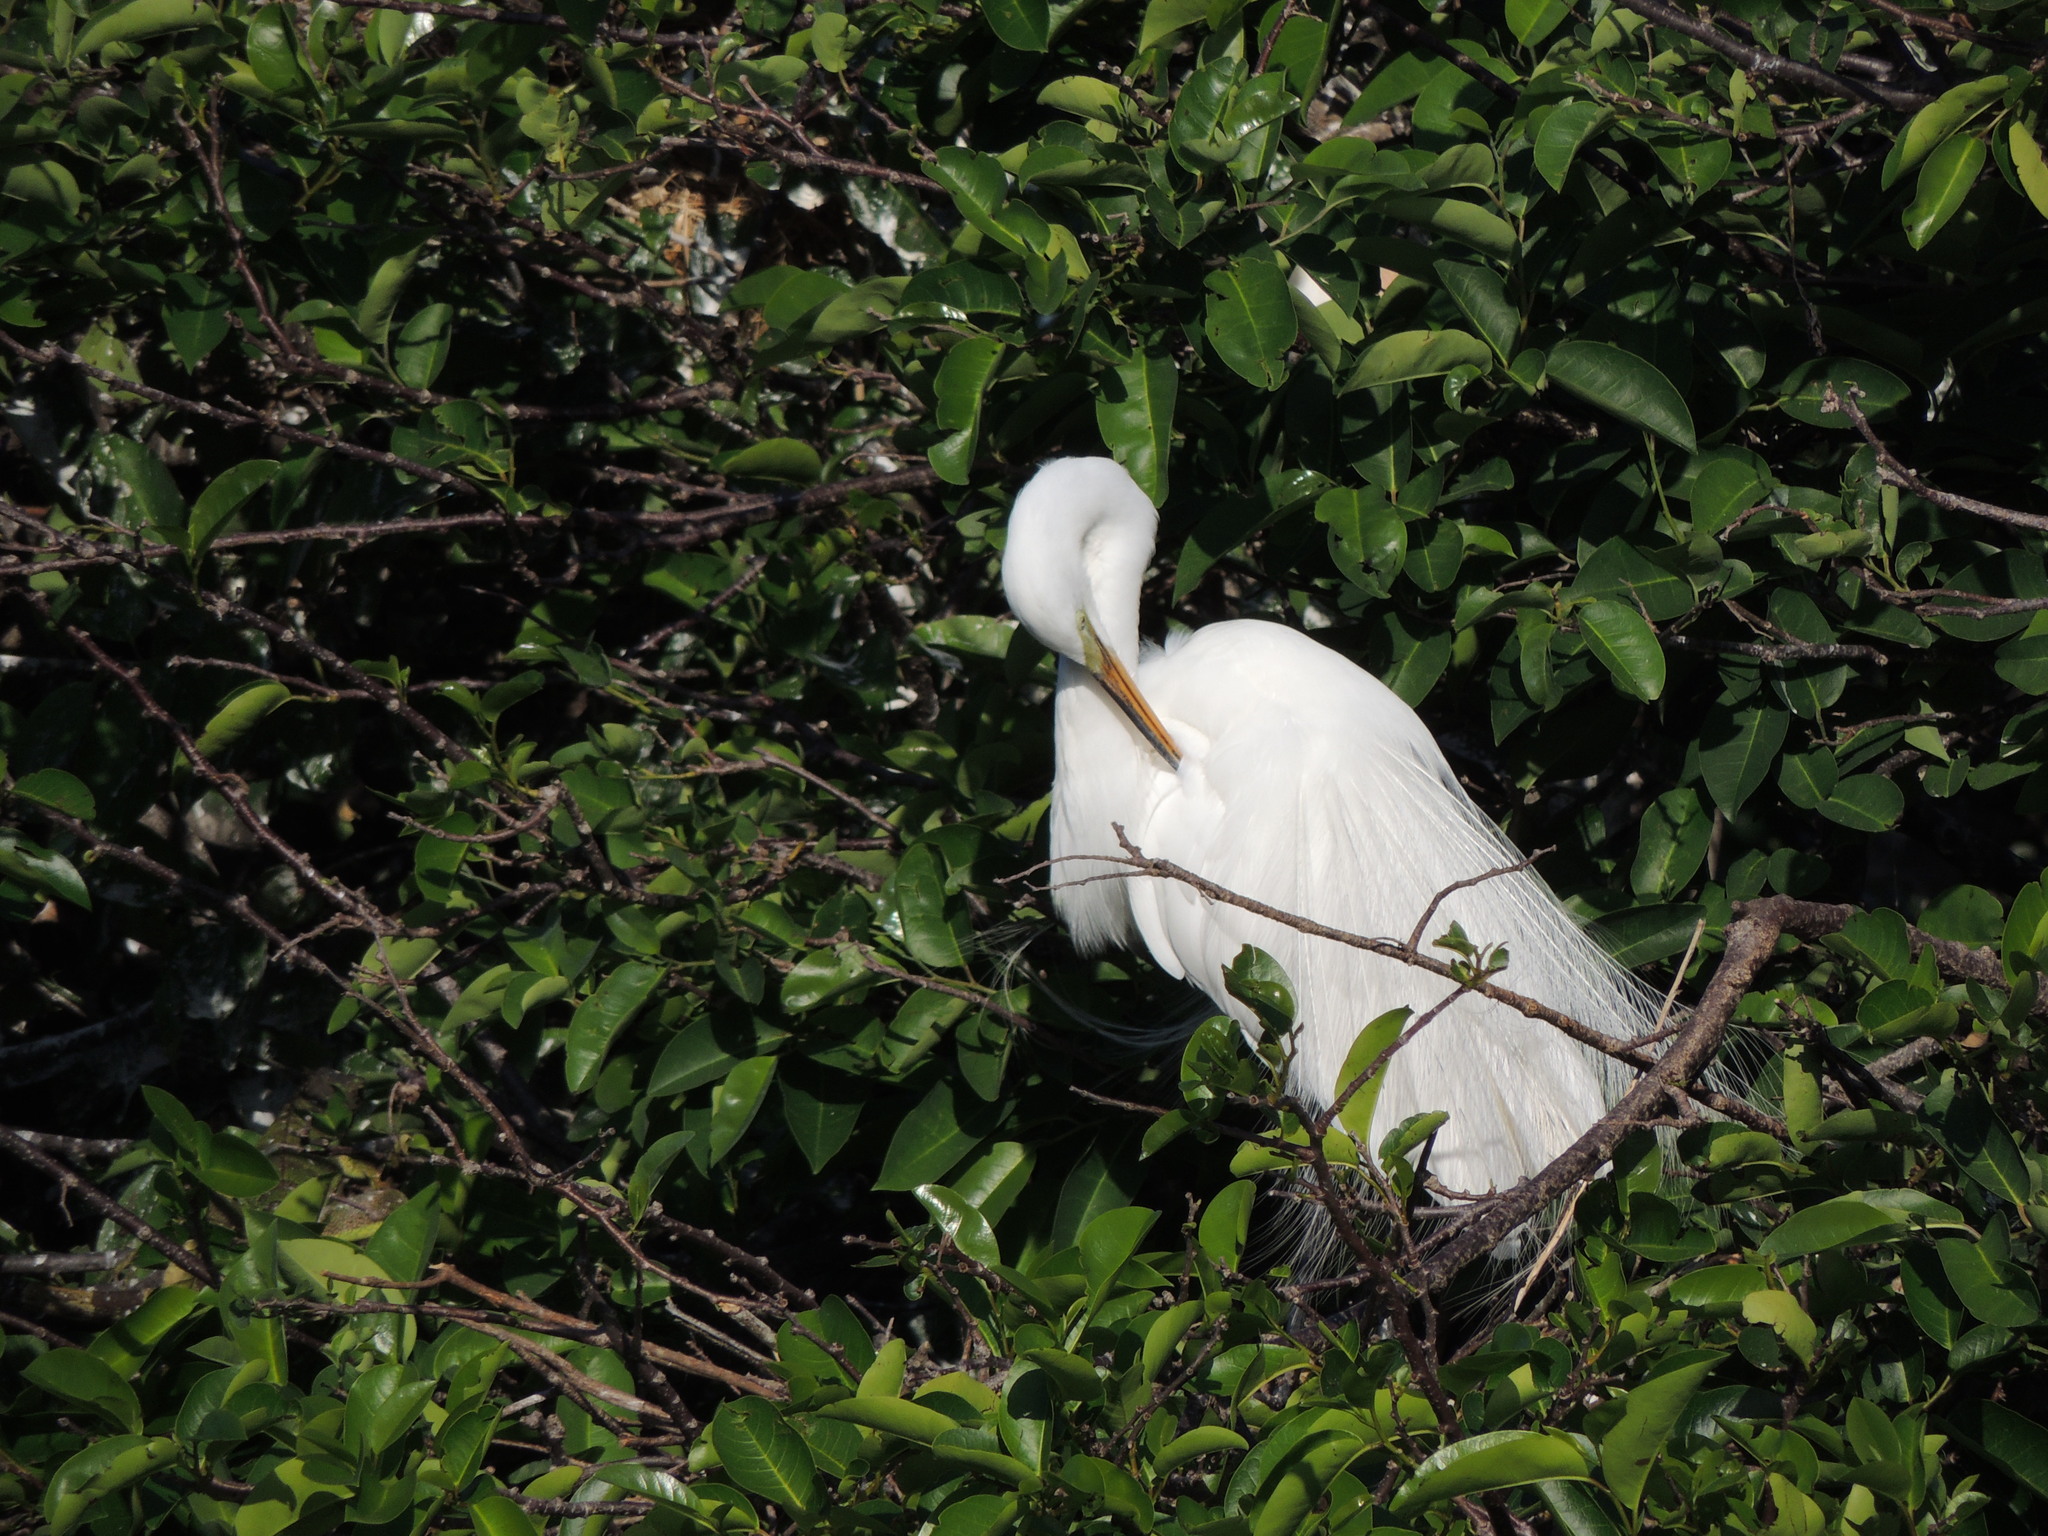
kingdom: Animalia
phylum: Chordata
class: Aves
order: Pelecaniformes
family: Ardeidae
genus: Ardea
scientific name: Ardea alba
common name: Great egret
